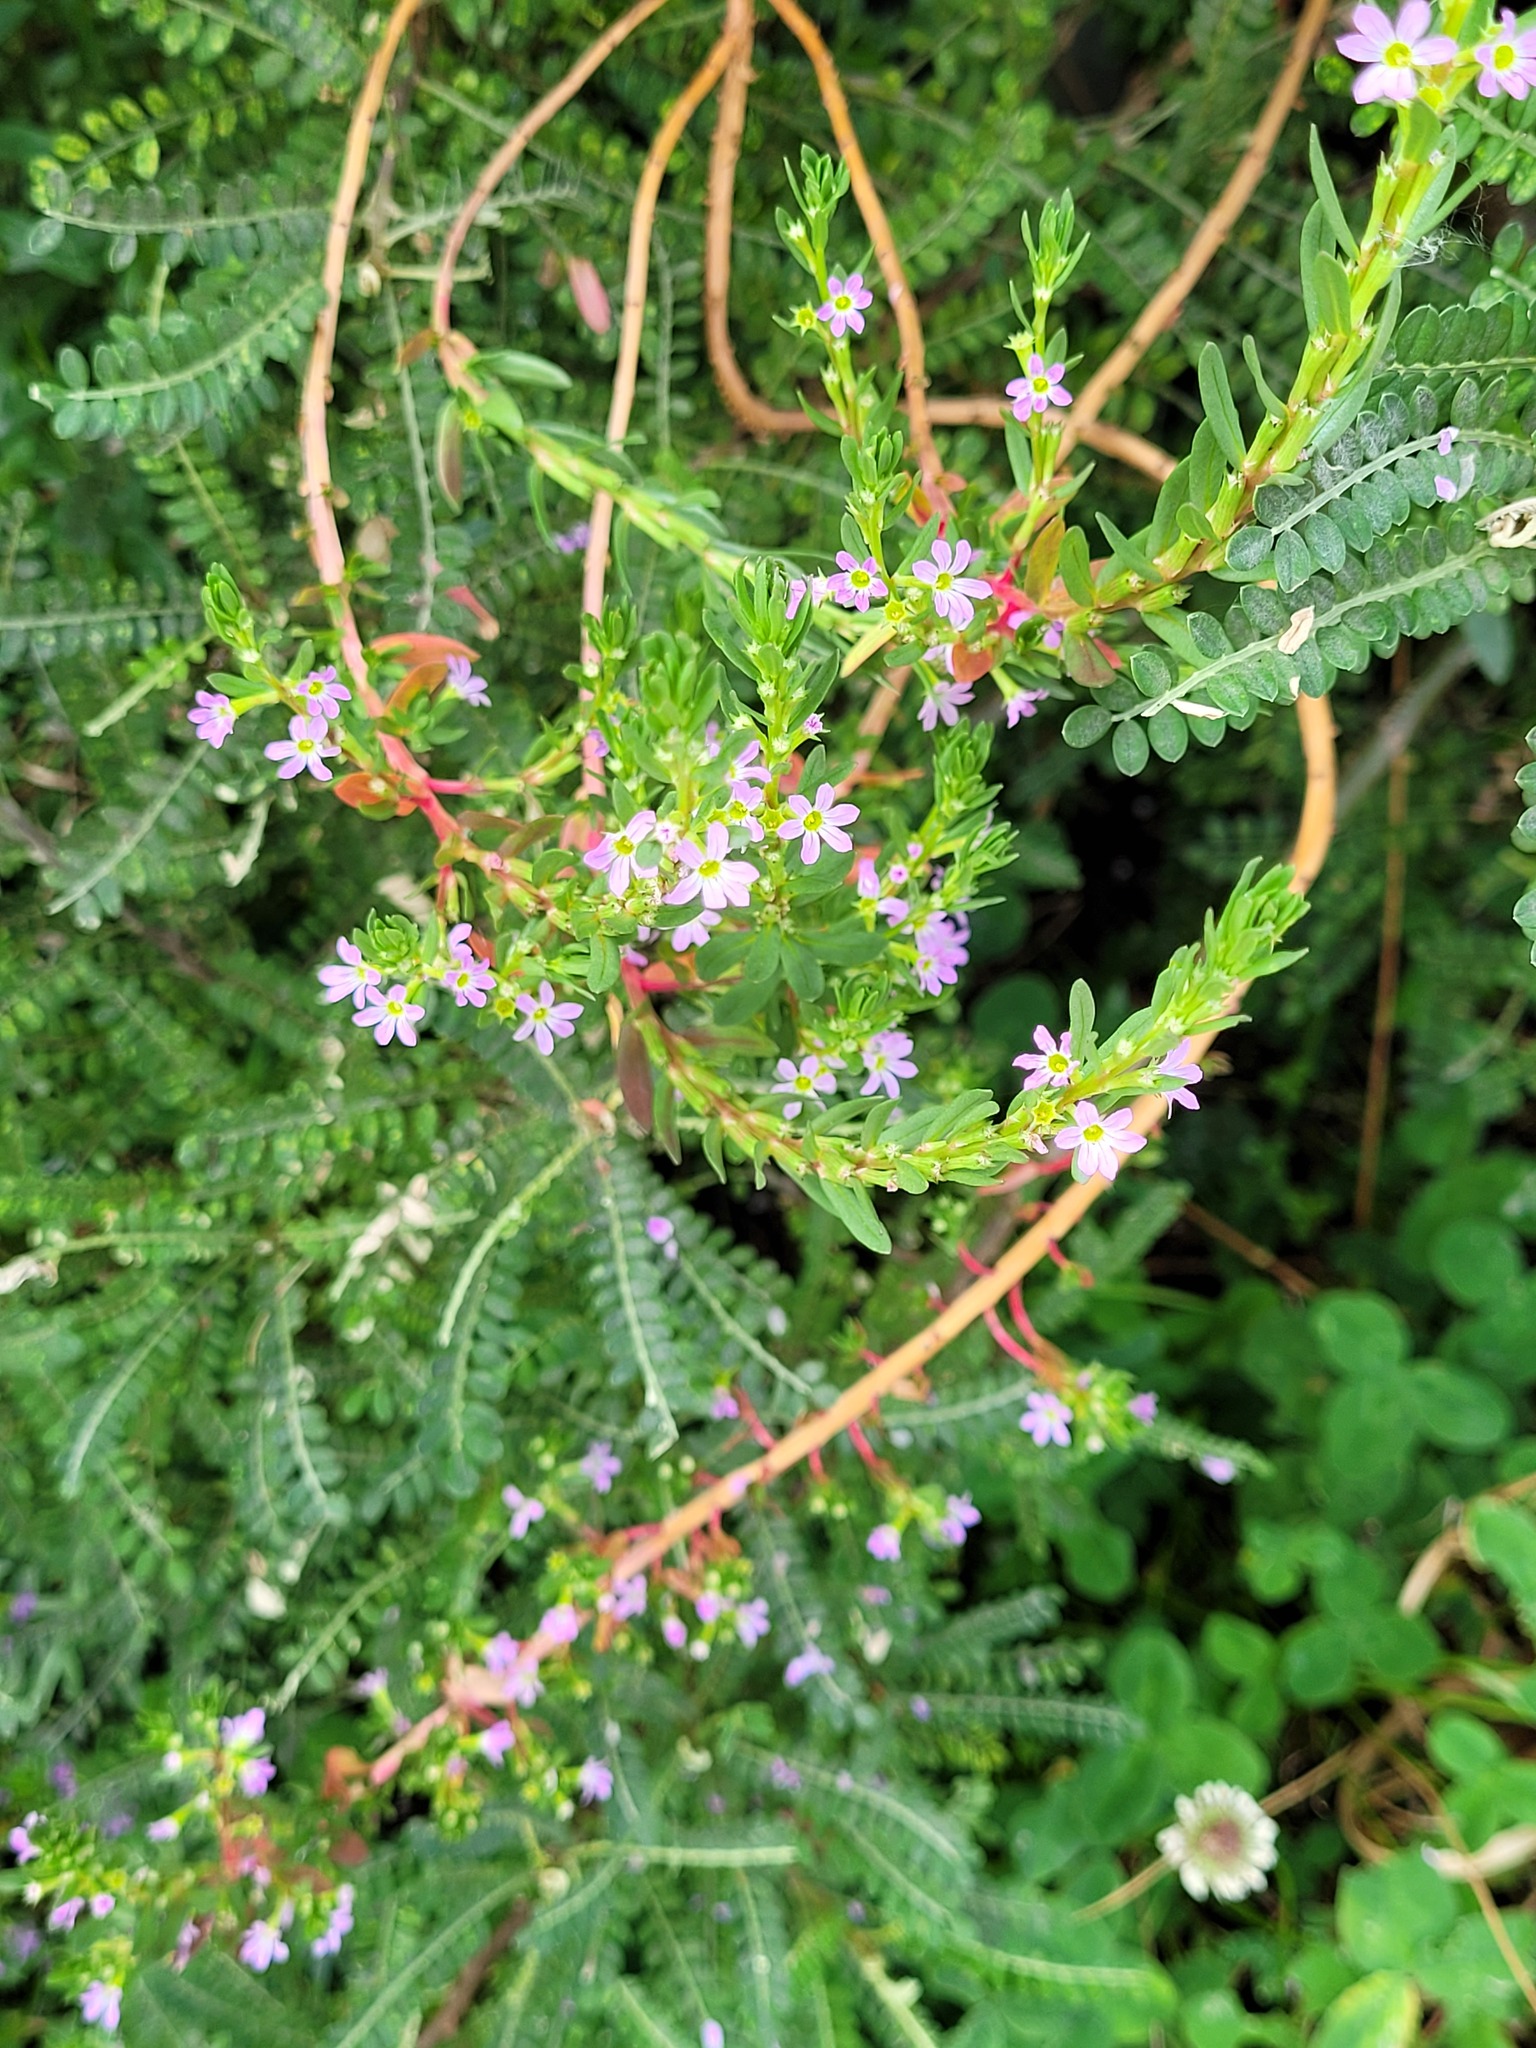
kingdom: Plantae
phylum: Tracheophyta
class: Magnoliopsida
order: Myrtales
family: Lythraceae
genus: Lythrum
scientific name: Lythrum hyssopifolia
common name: Grass-poly
